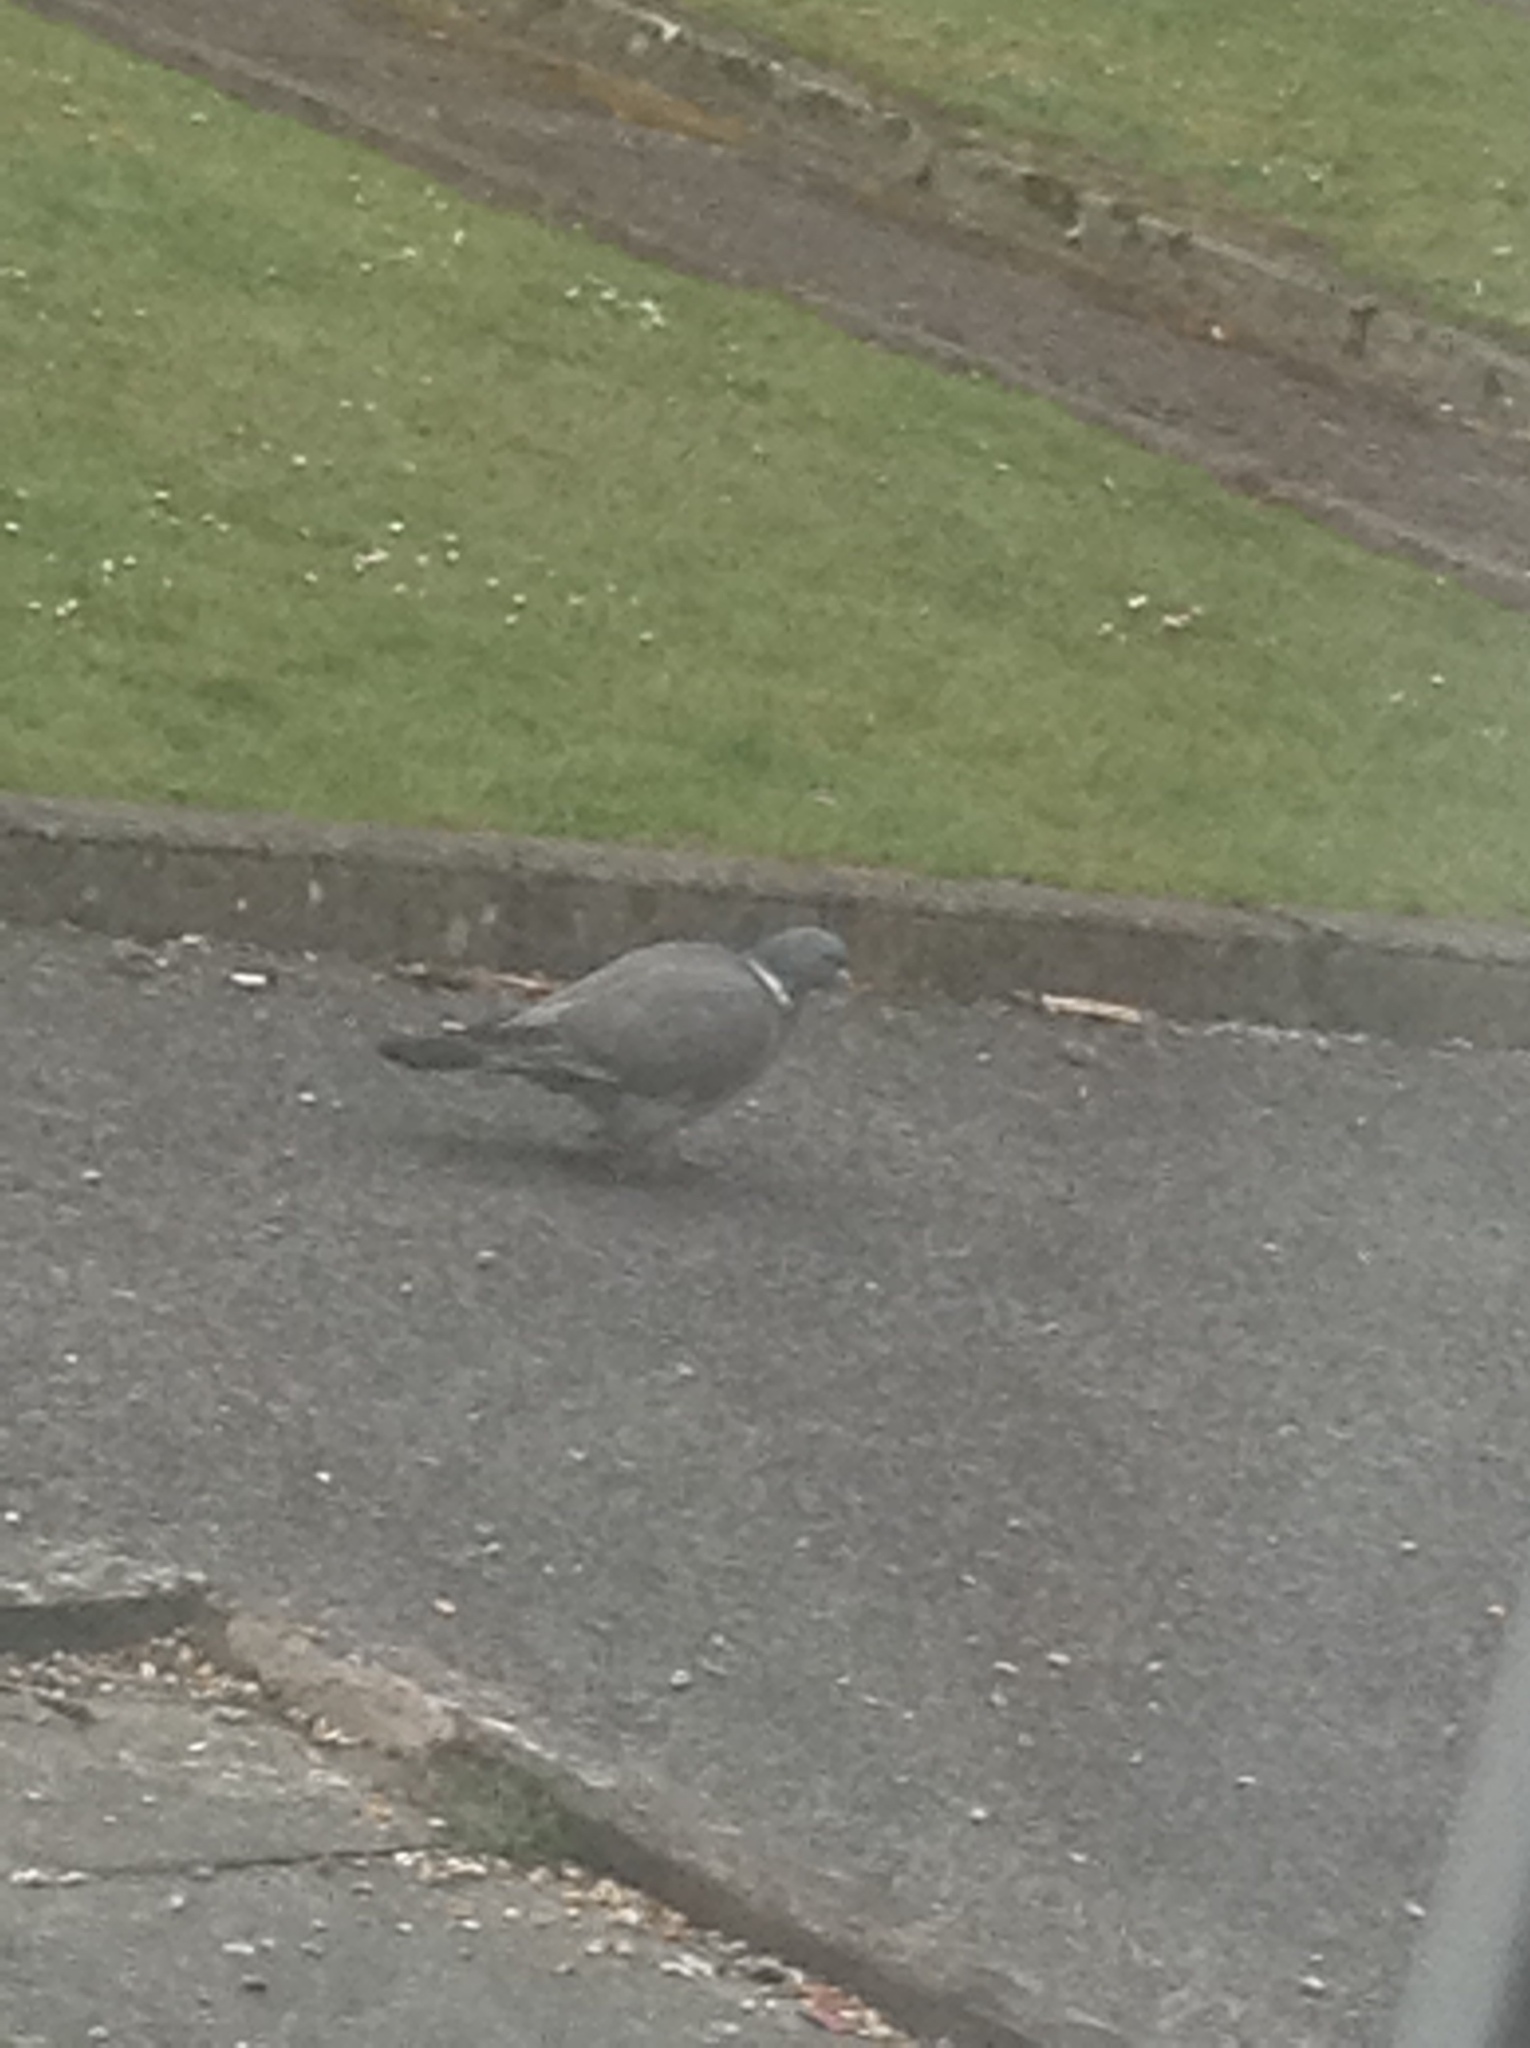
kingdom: Animalia
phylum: Chordata
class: Aves
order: Columbiformes
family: Columbidae
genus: Columba
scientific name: Columba palumbus
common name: Common wood pigeon
